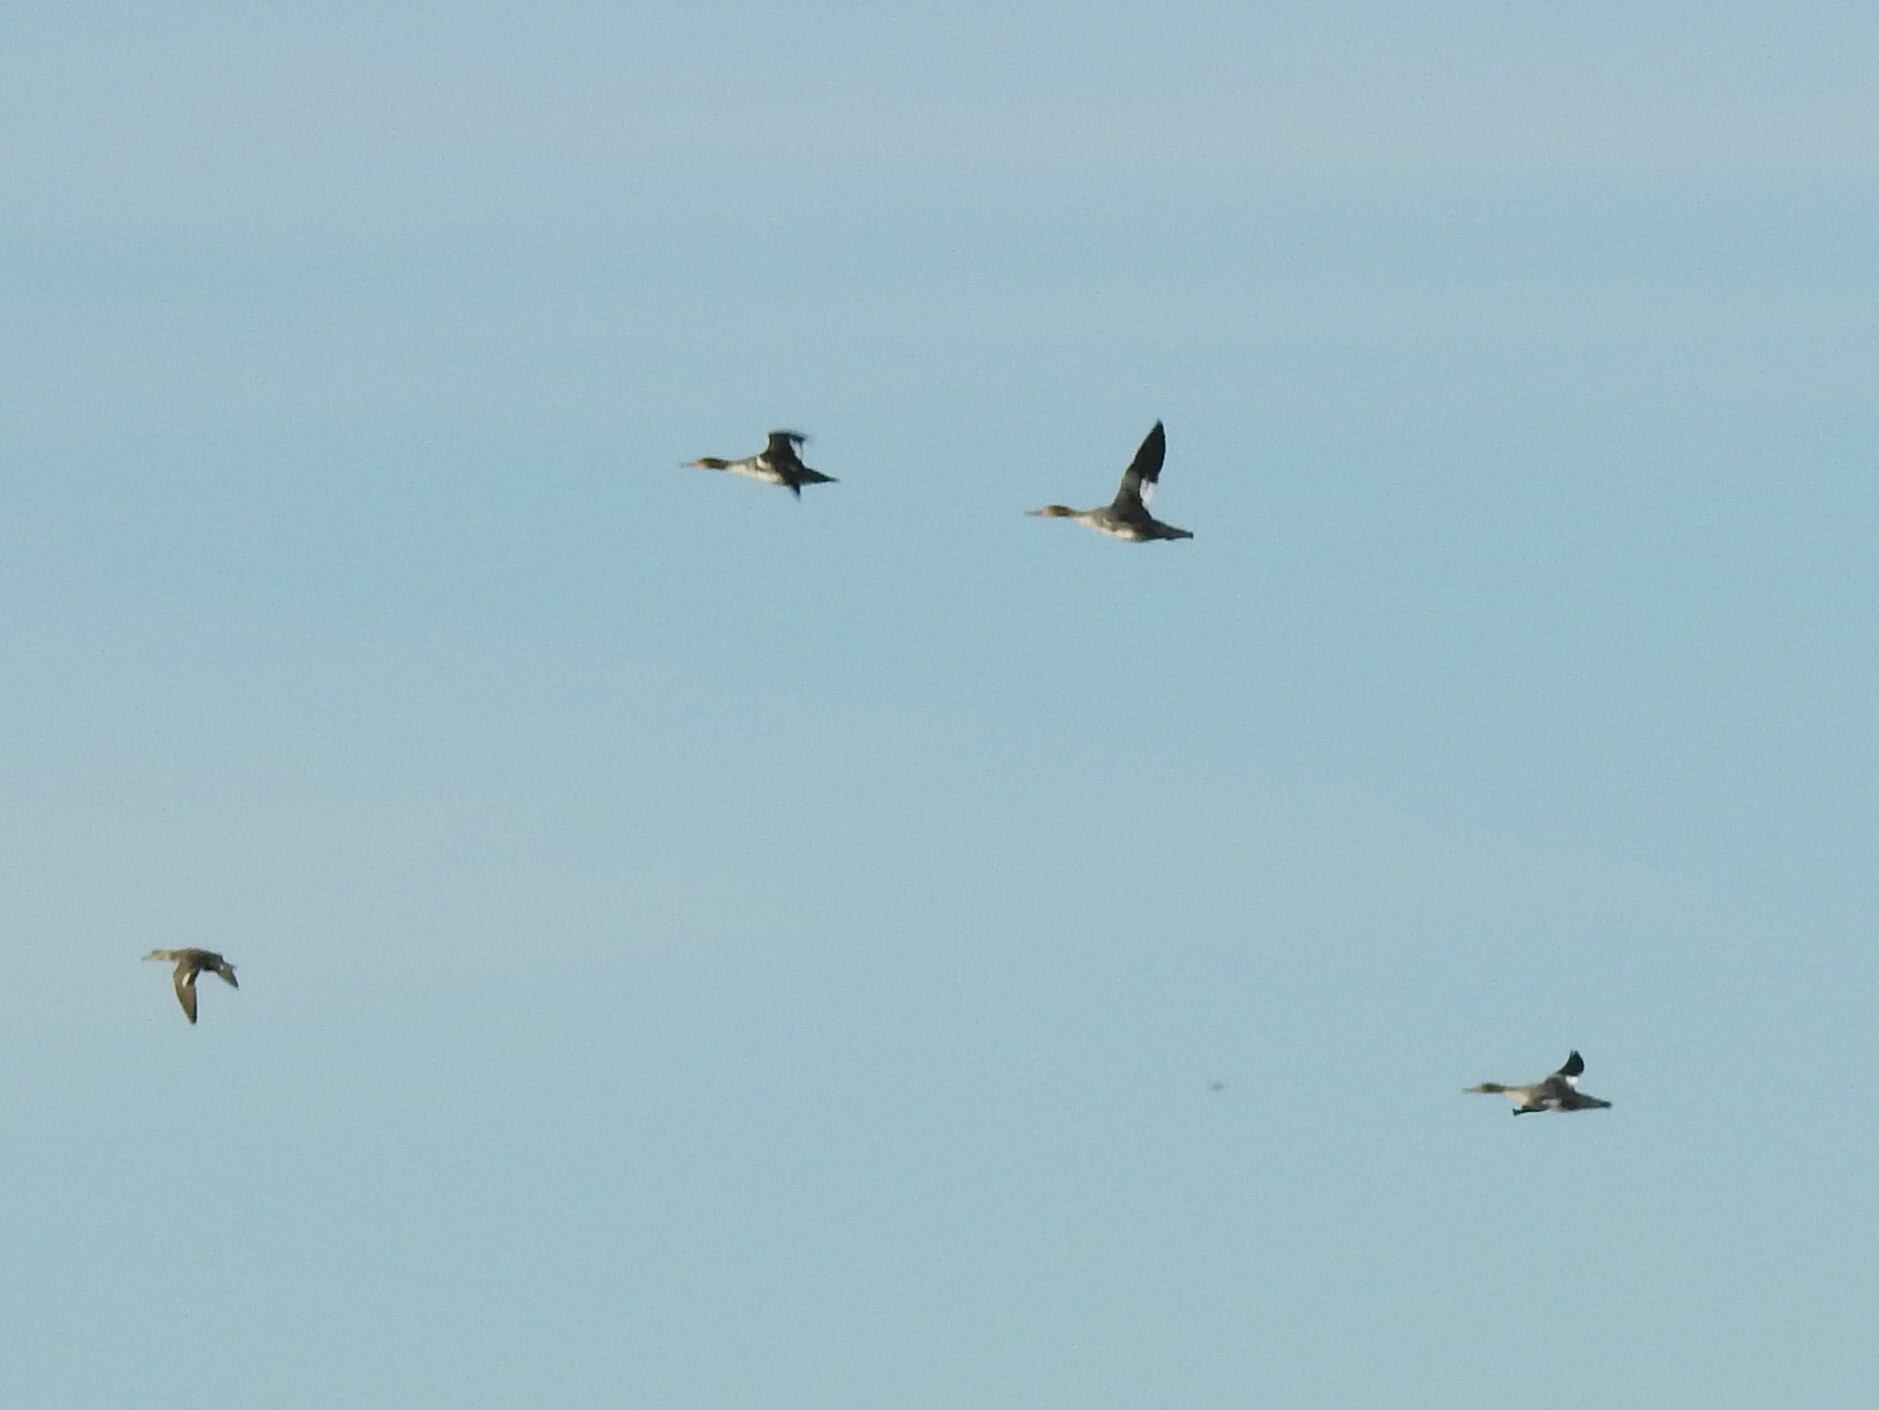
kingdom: Animalia
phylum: Chordata
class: Aves
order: Anseriformes
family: Anatidae
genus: Mergus
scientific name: Mergus serrator
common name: Red-breasted merganser
